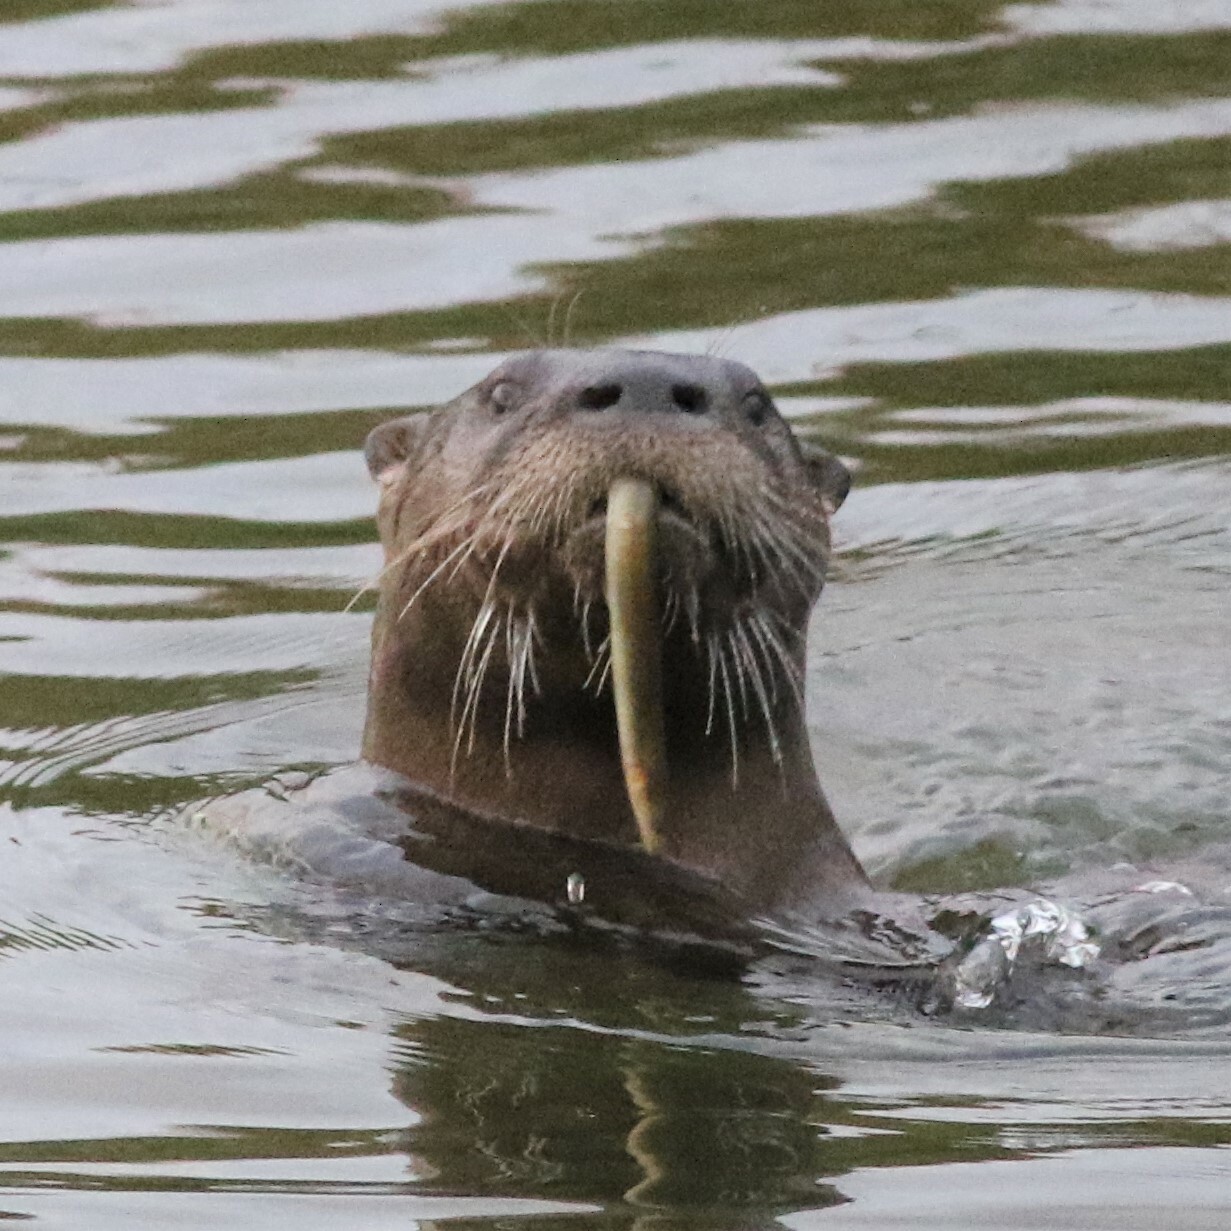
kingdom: Animalia
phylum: Chordata
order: Anguilliformes
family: Anguillidae
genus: Anguilla
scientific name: Anguilla rostrata
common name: American eel
